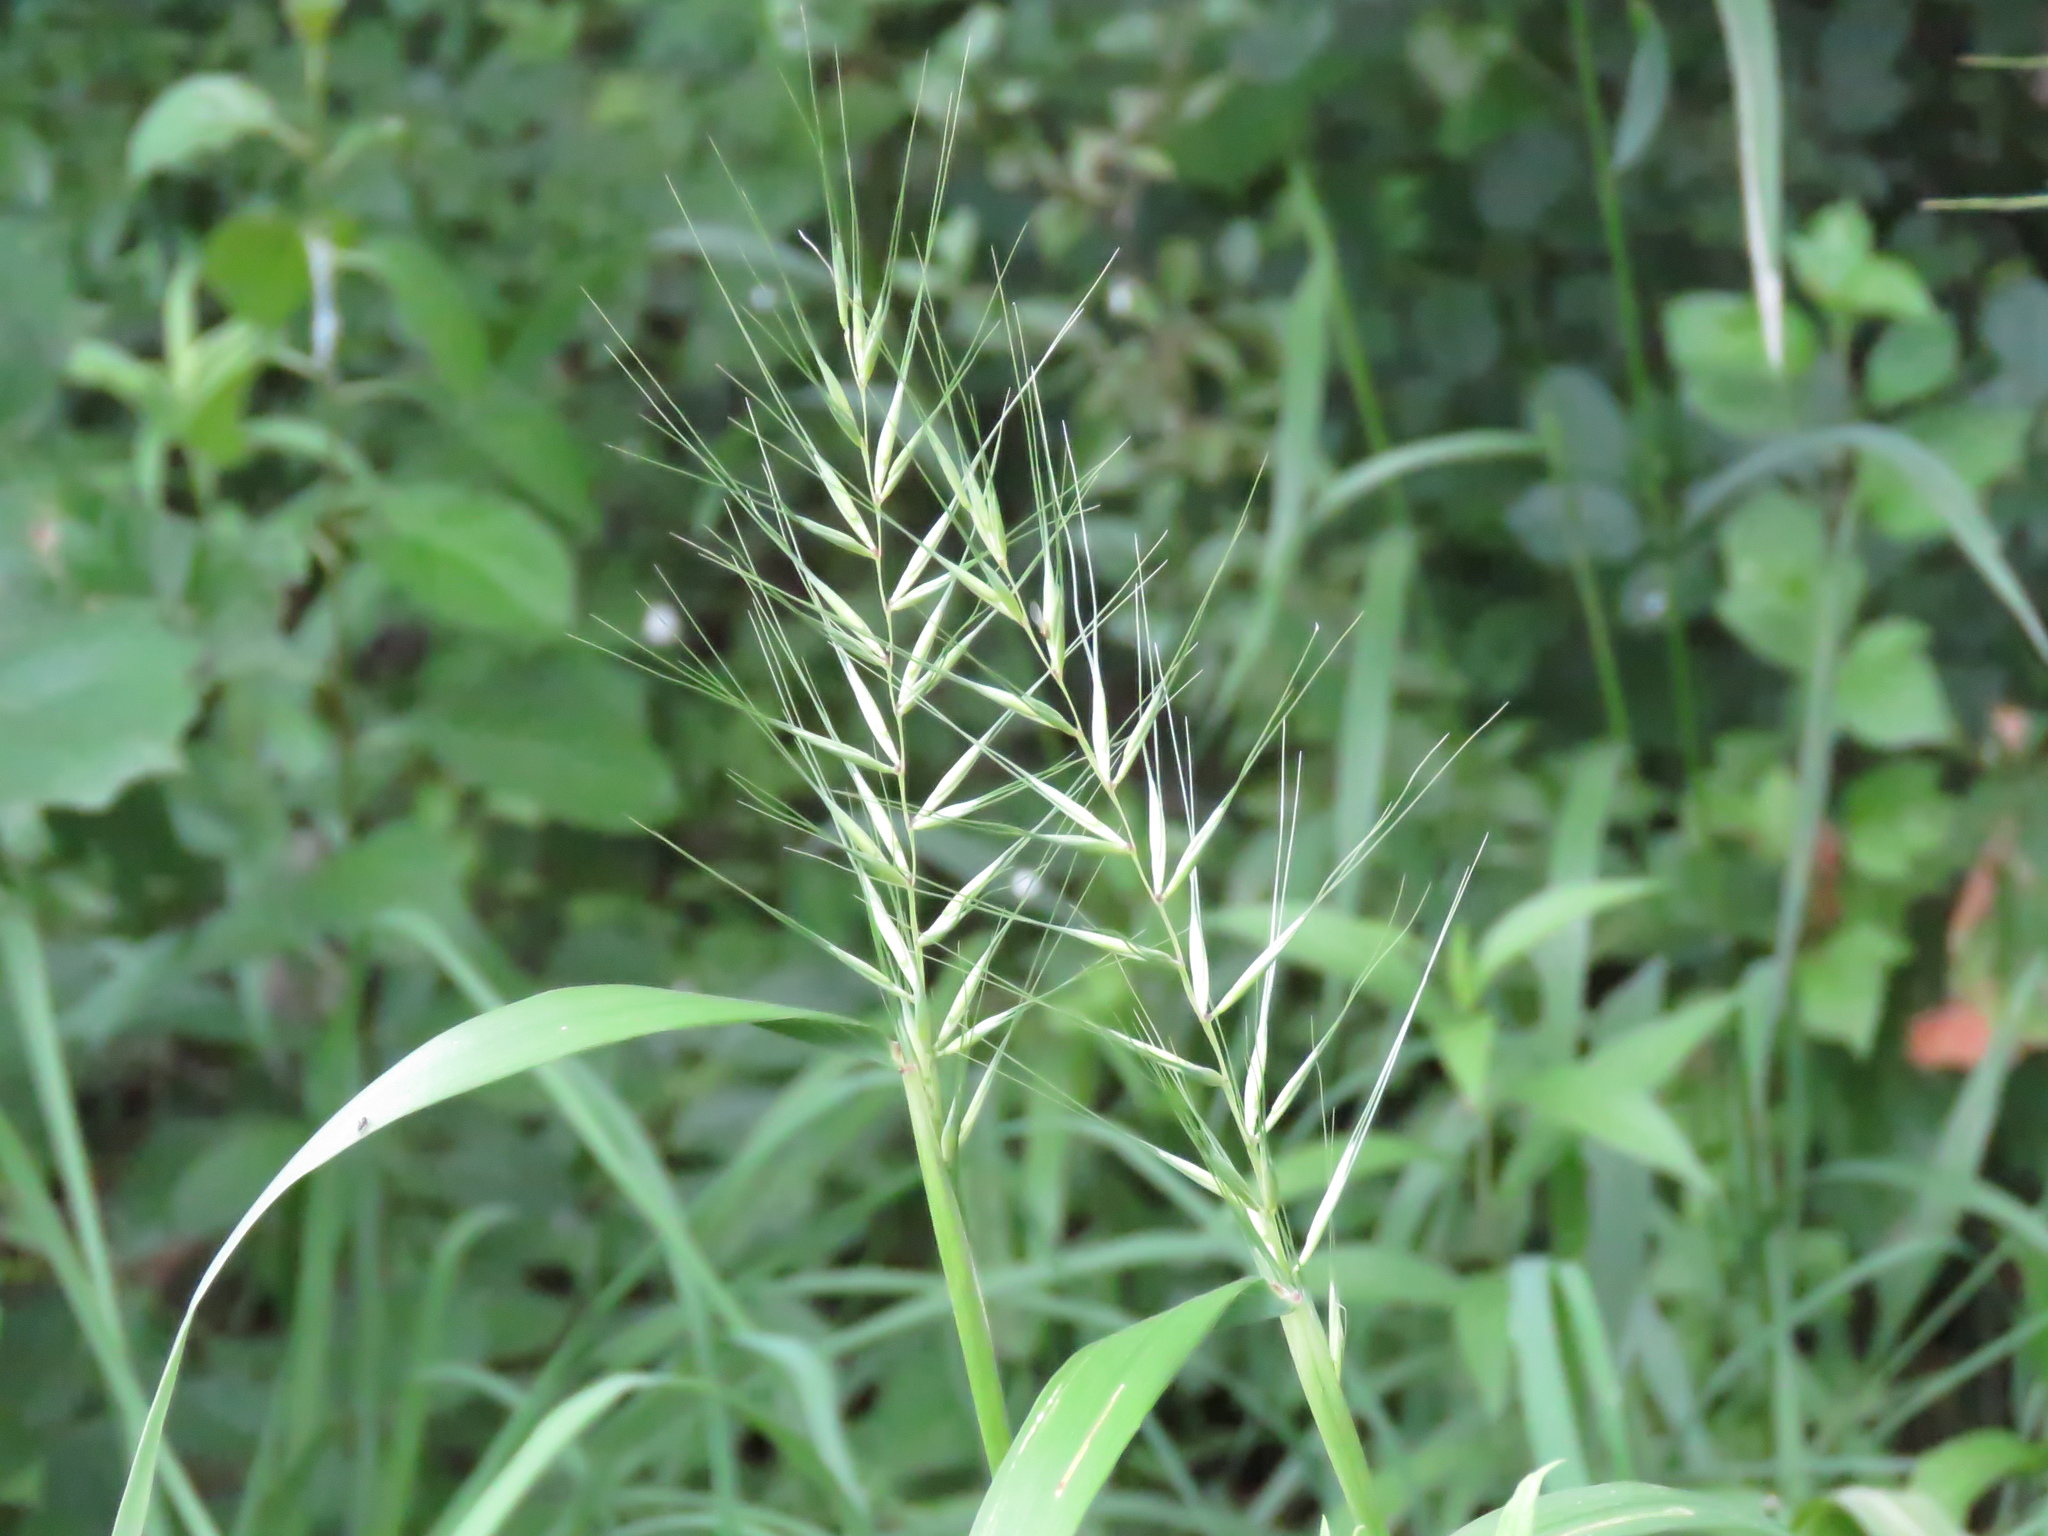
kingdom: Plantae
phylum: Tracheophyta
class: Liliopsida
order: Poales
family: Poaceae
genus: Elymus
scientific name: Elymus hystrix
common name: Bottlebrush grass
